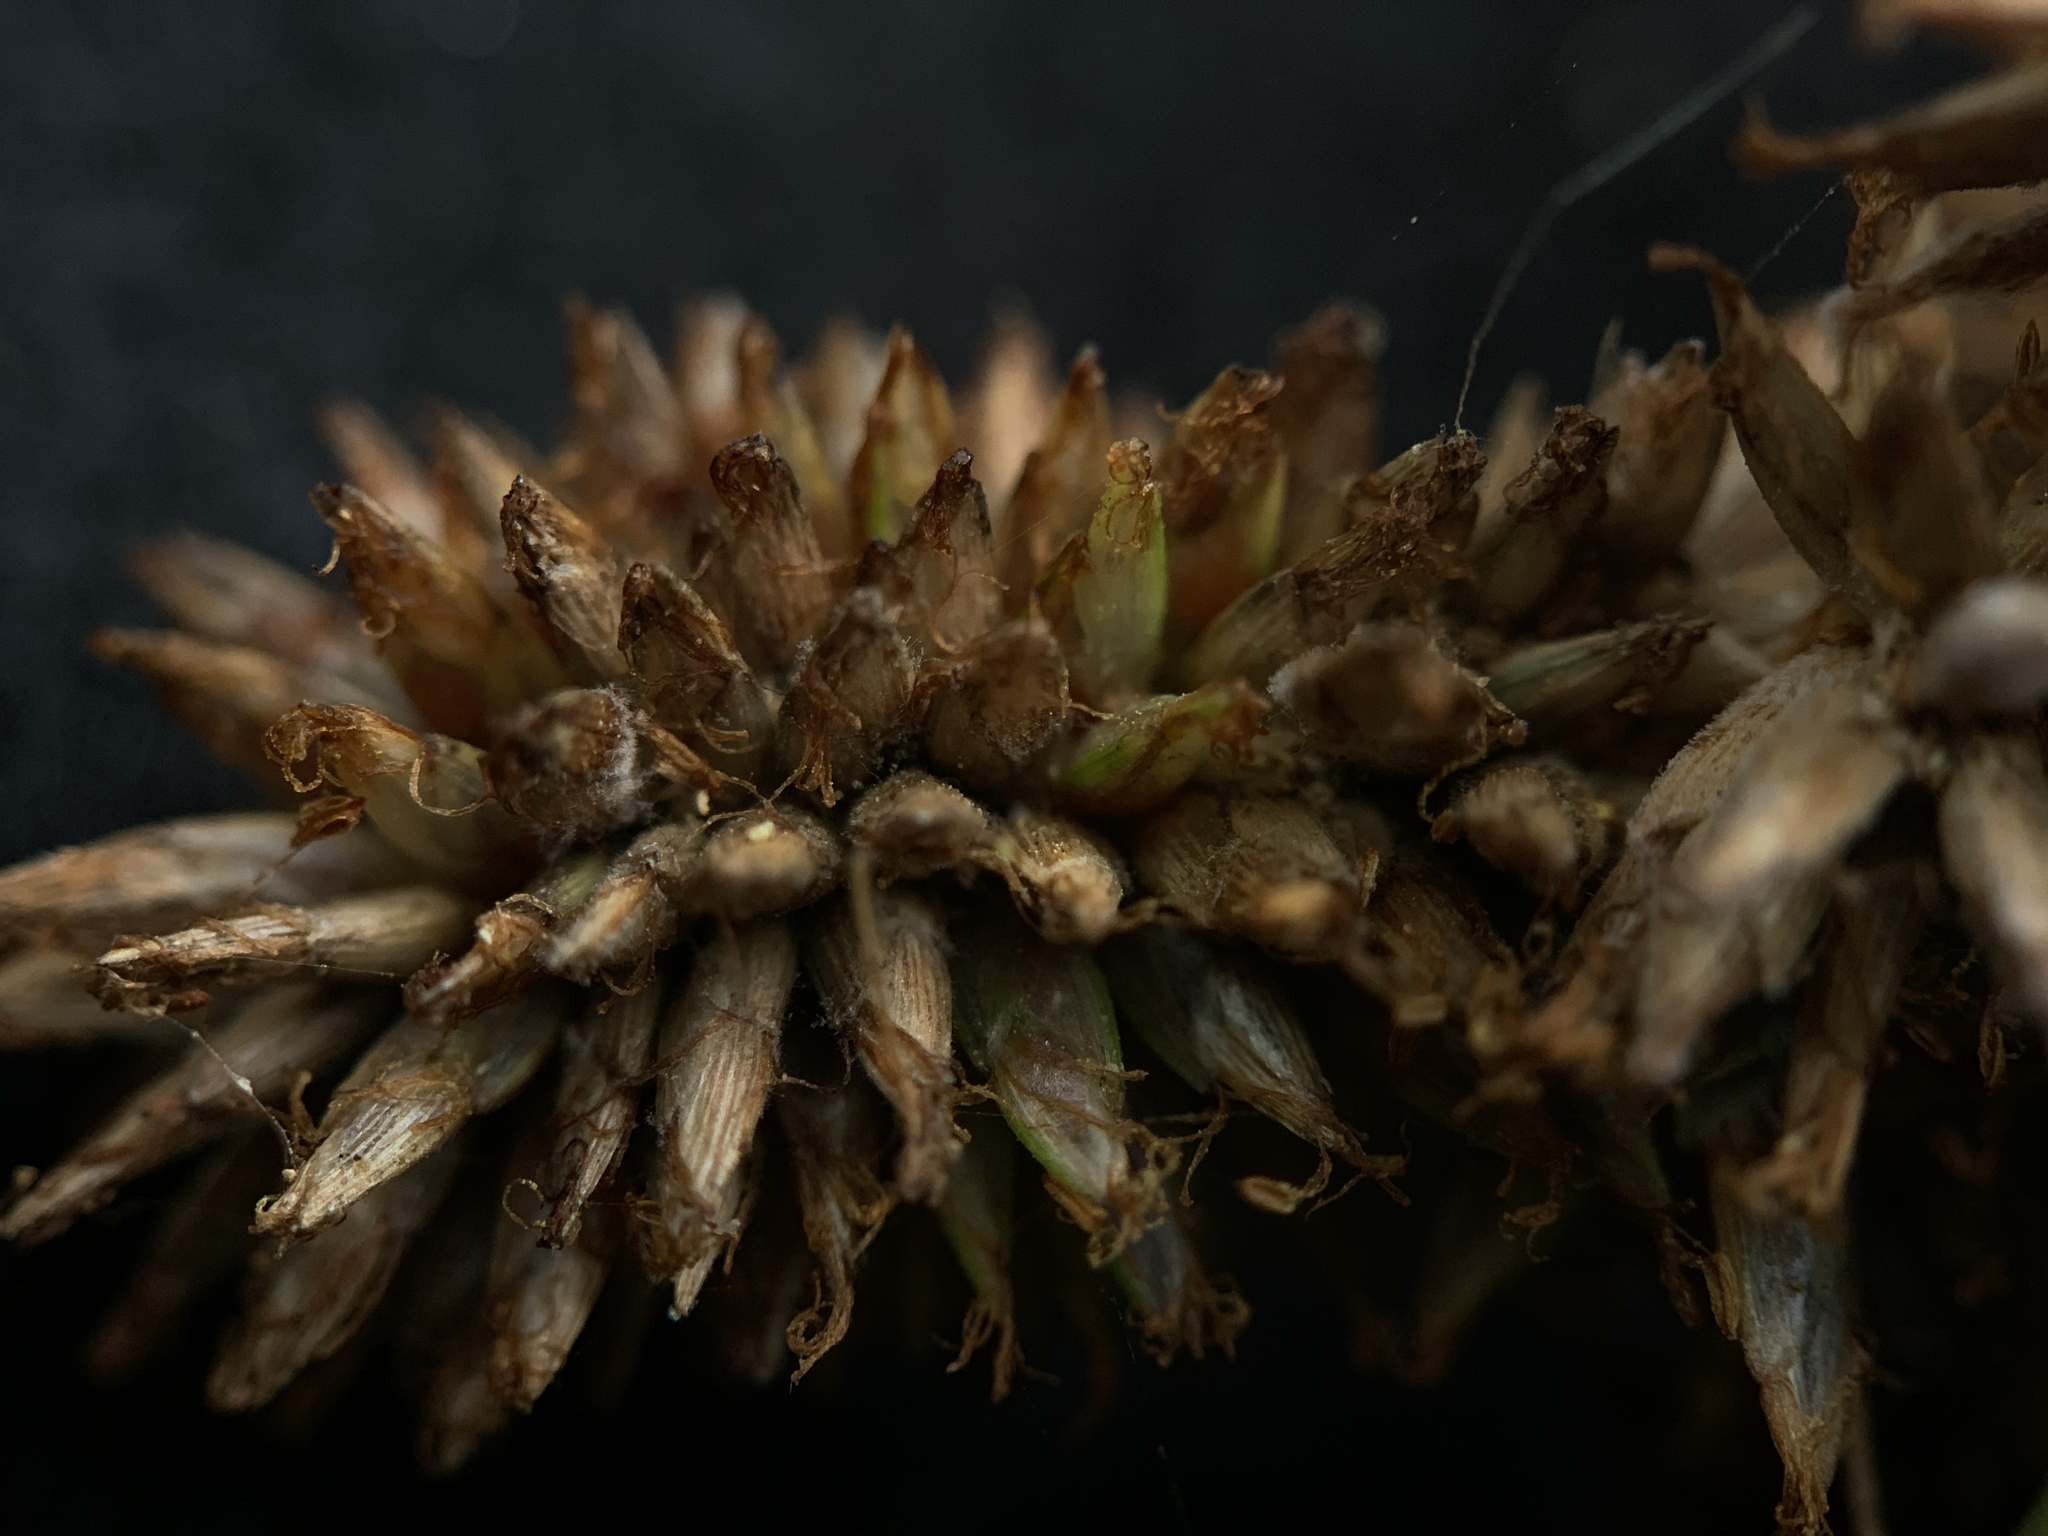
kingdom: Plantae
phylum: Tracheophyta
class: Liliopsida
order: Poales
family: Cyperaceae
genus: Cyperus
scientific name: Cyperus ligularis
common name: Swamp flat sedge
